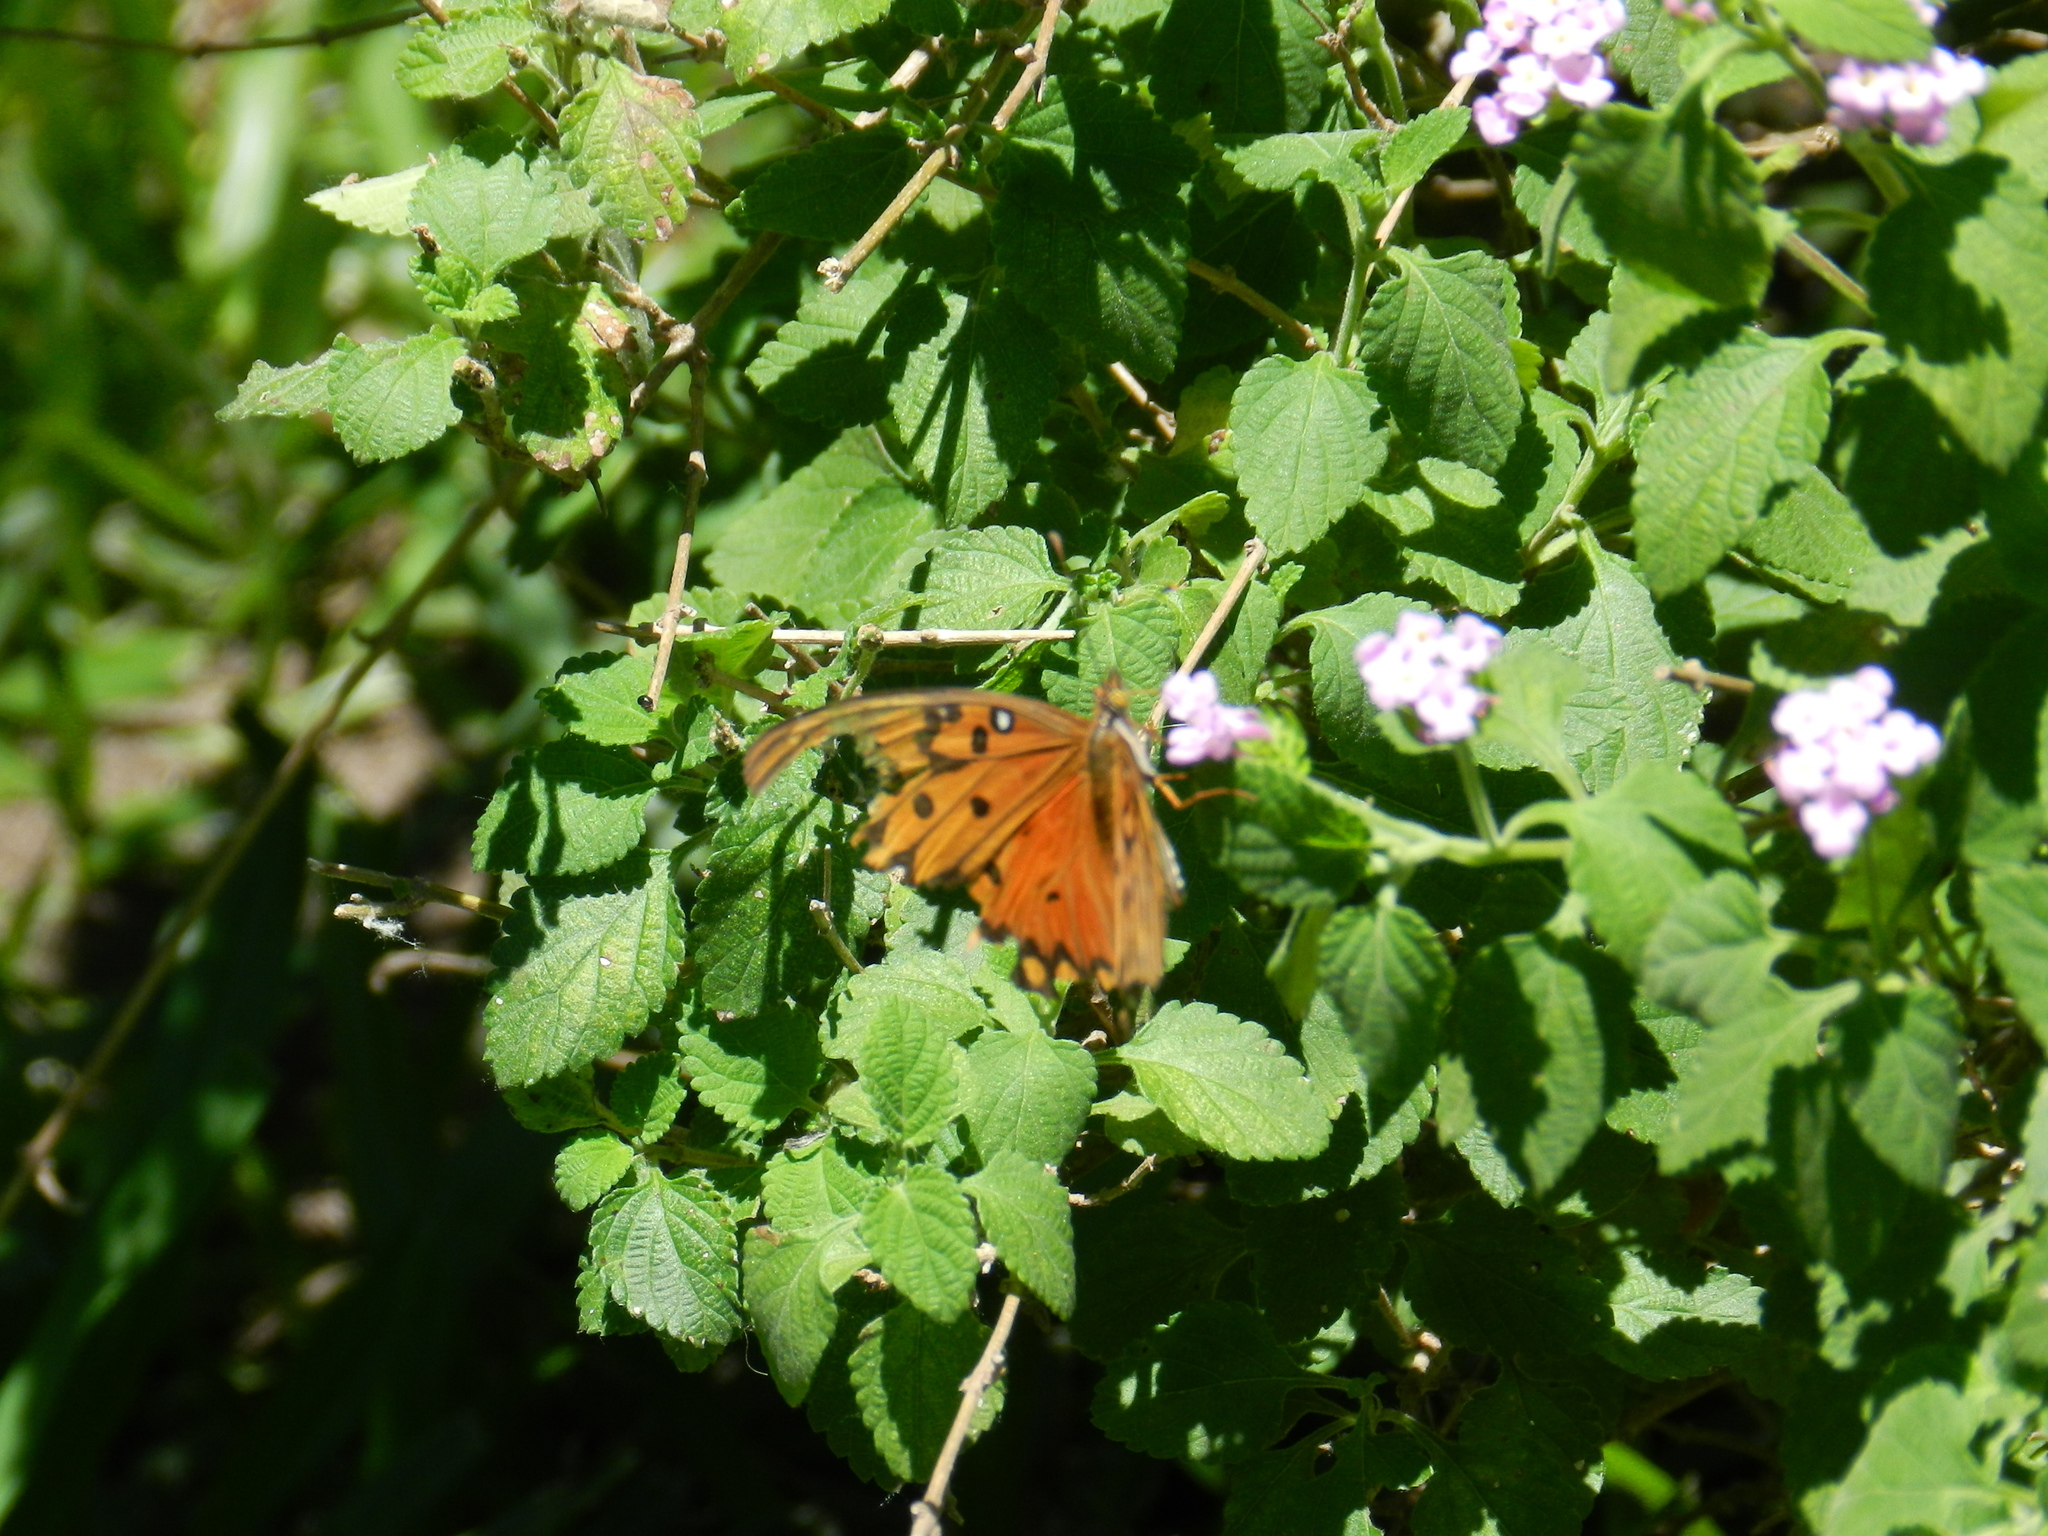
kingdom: Animalia
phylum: Arthropoda
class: Insecta
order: Lepidoptera
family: Nymphalidae
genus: Dione
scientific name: Dione vanillae
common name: Gulf fritillary
